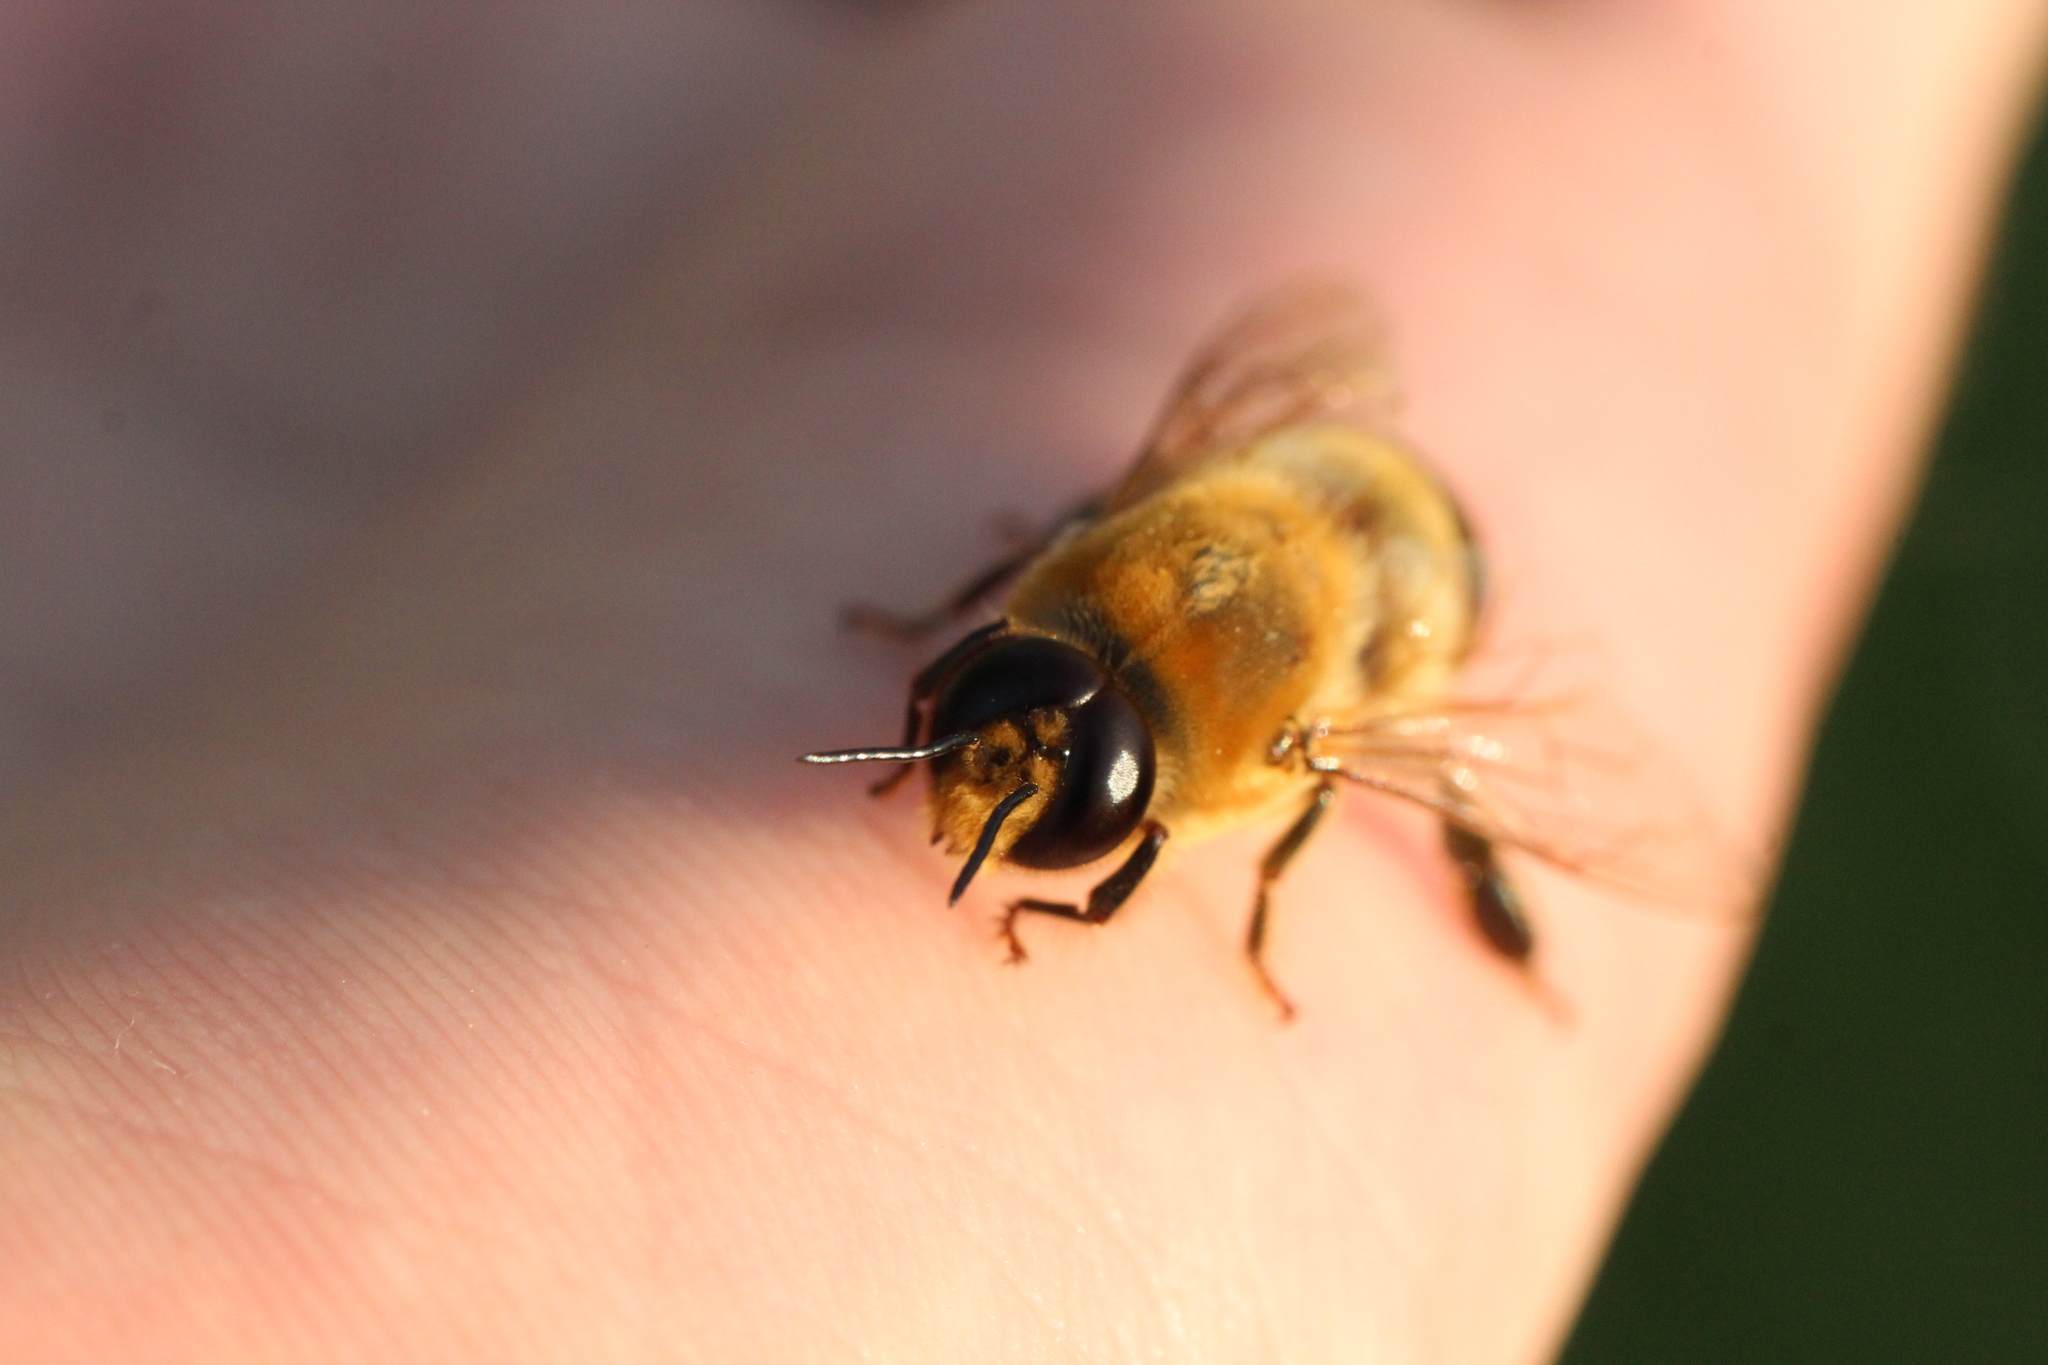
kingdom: Animalia
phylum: Arthropoda
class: Insecta
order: Hymenoptera
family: Apidae
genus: Apis
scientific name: Apis mellifera
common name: Honey bee
